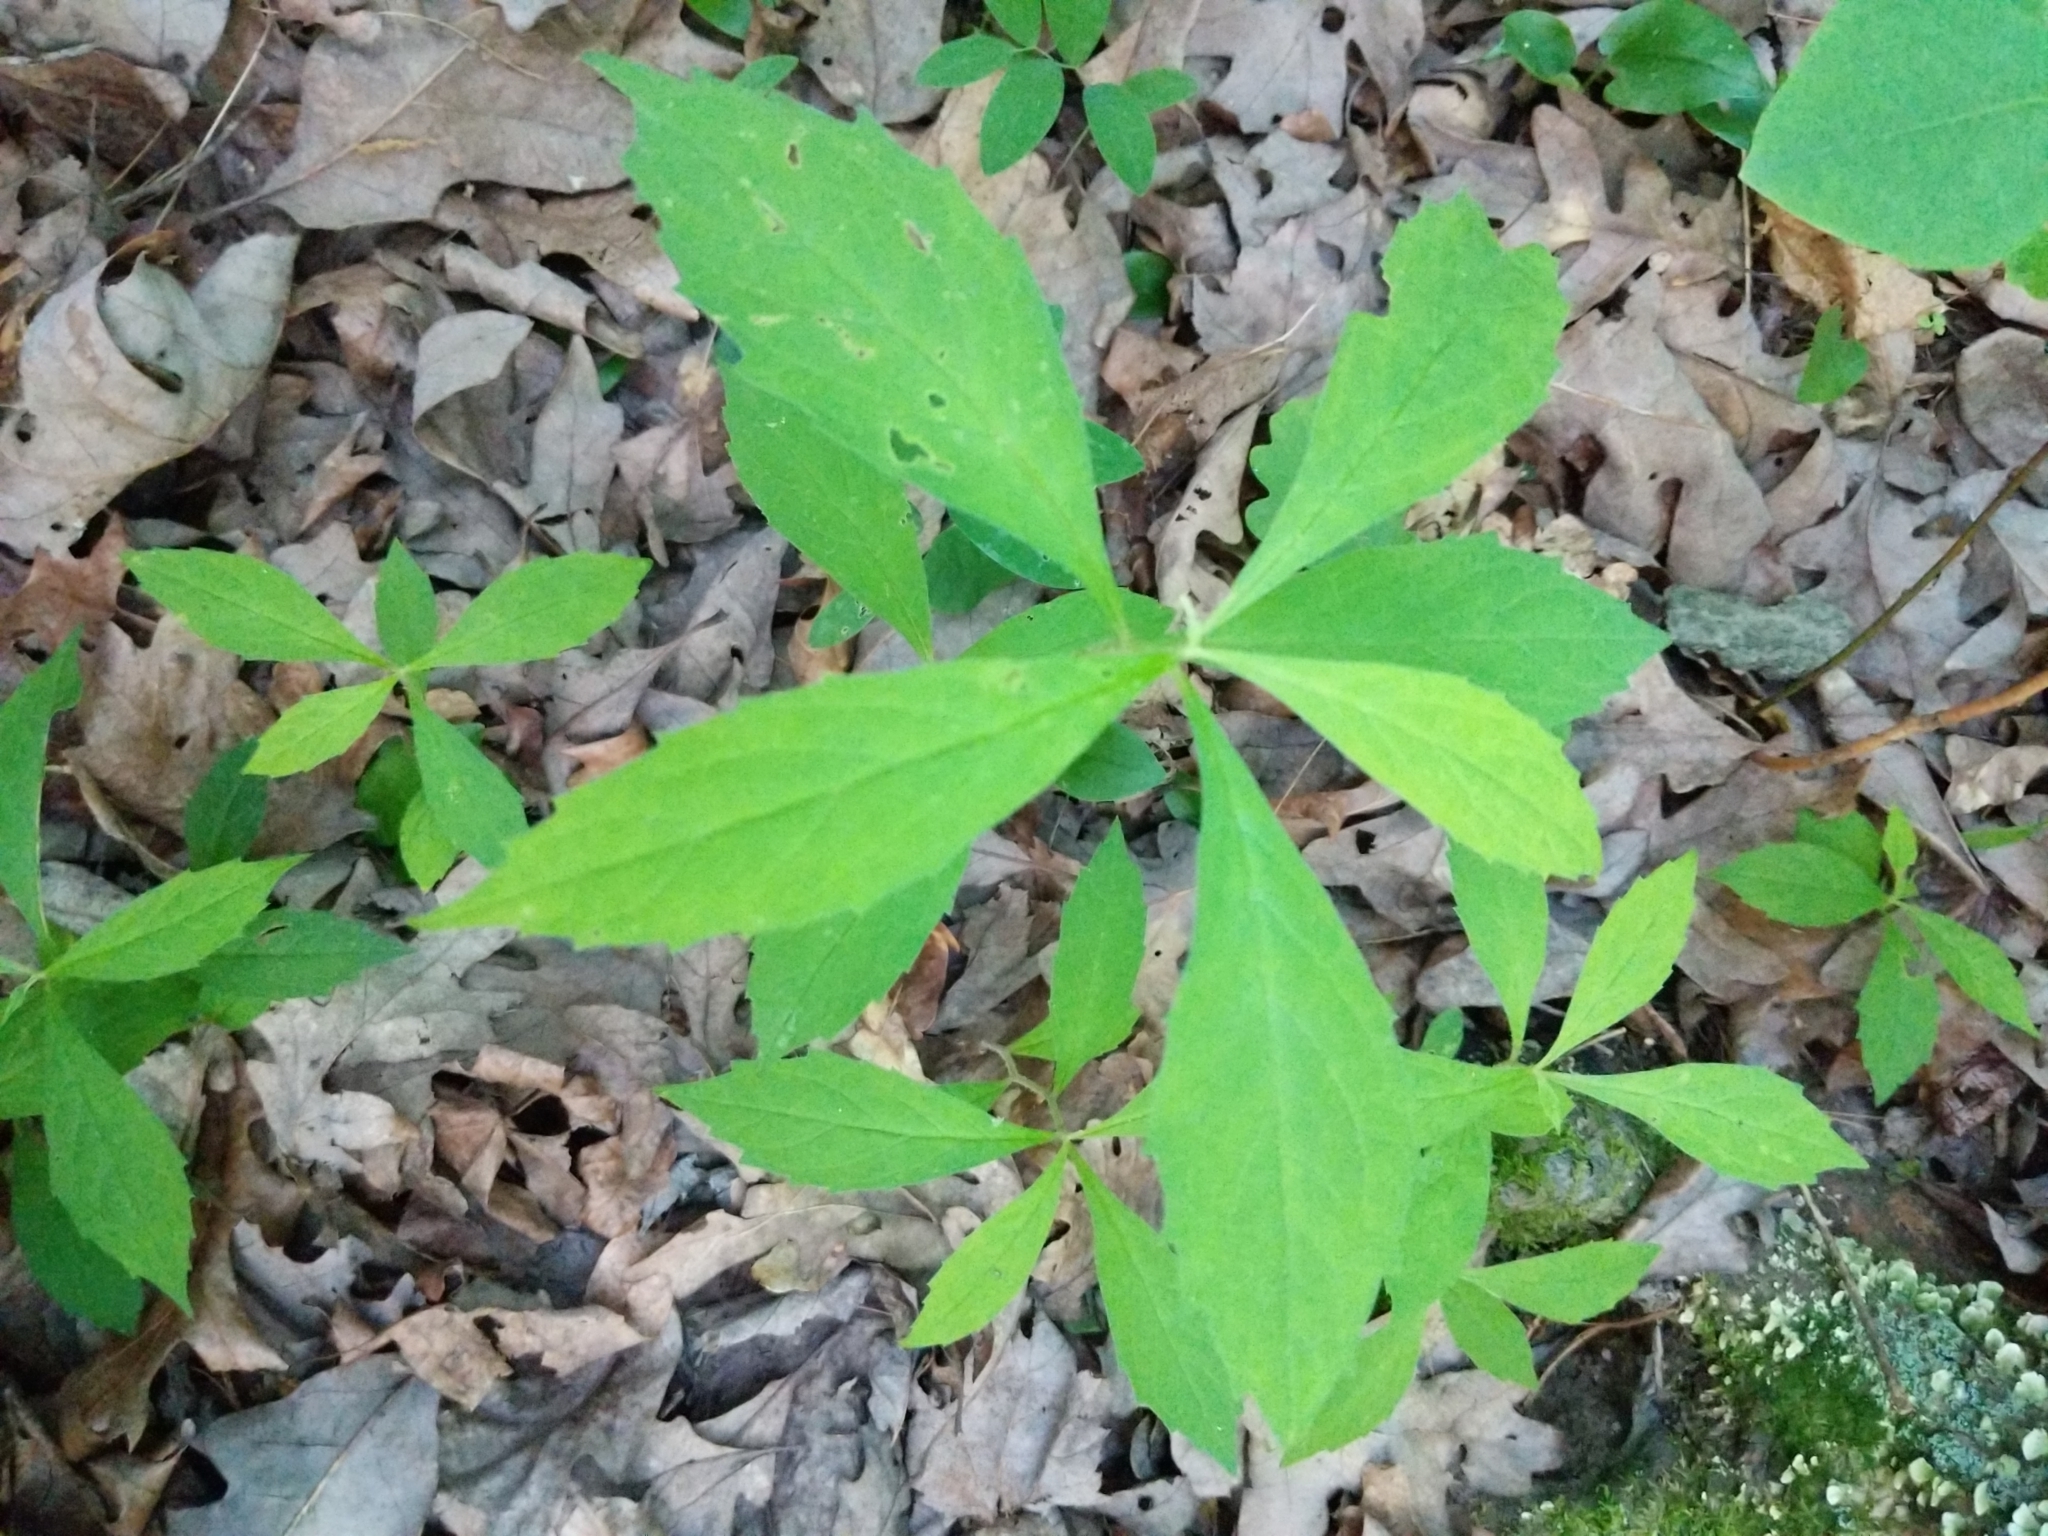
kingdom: Plantae
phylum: Tracheophyta
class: Magnoliopsida
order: Asterales
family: Asteraceae
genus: Oclemena
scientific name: Oclemena acuminata
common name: Mountain aster
